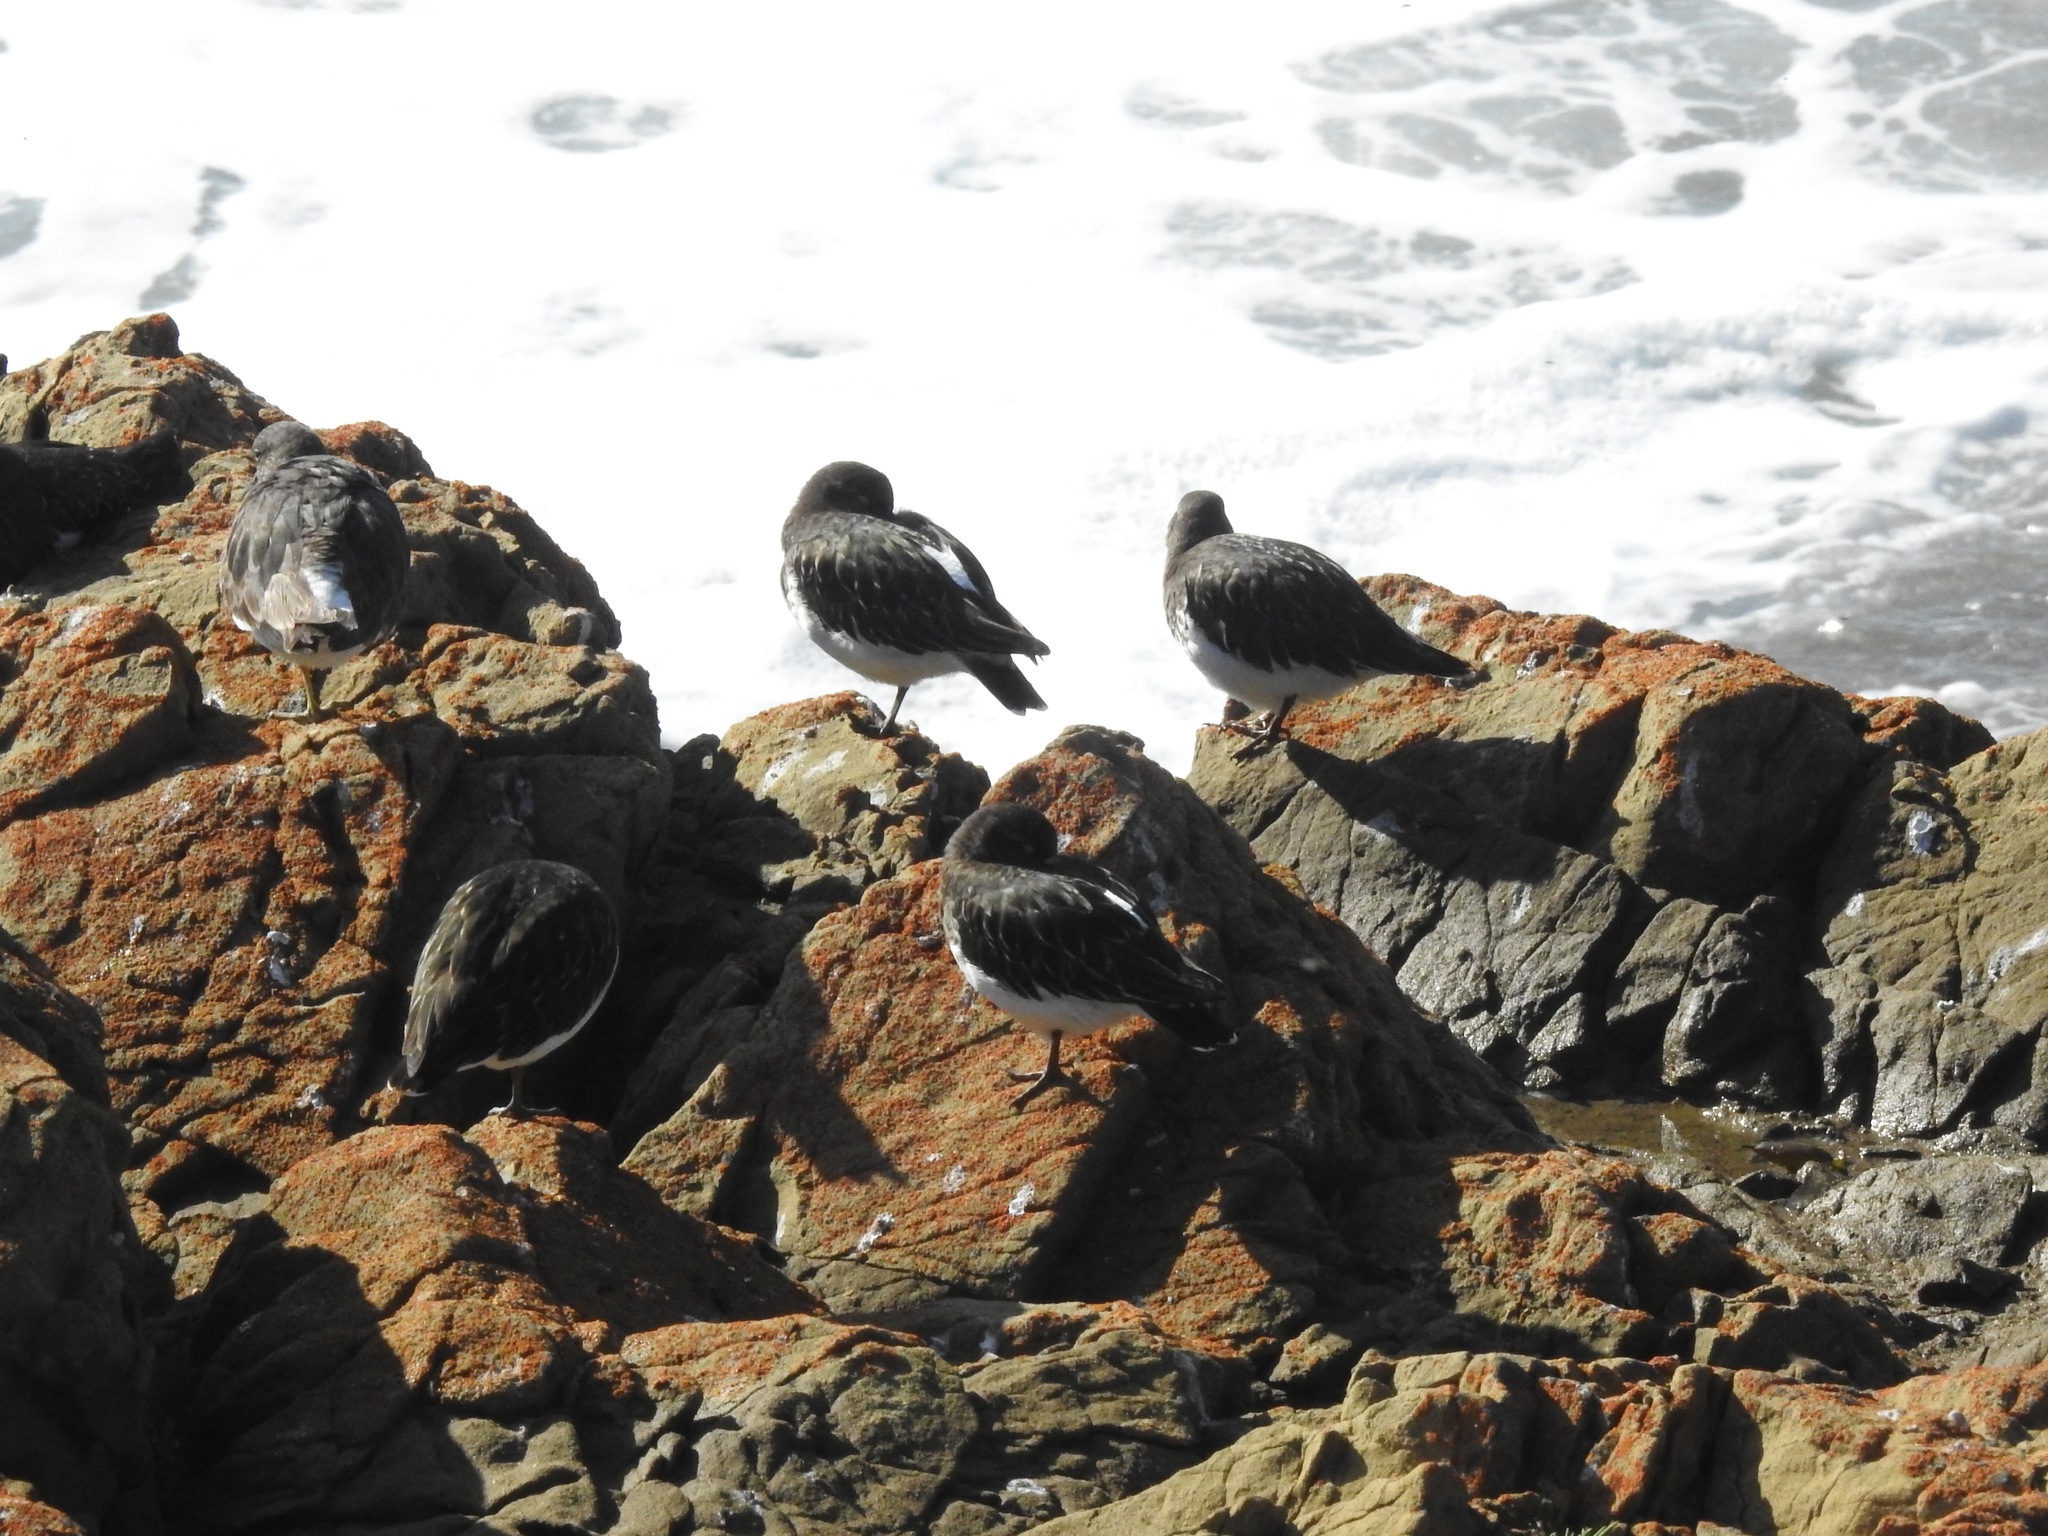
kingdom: Animalia
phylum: Chordata
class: Aves
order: Charadriiformes
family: Scolopacidae
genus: Arenaria
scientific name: Arenaria melanocephala
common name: Black turnstone
